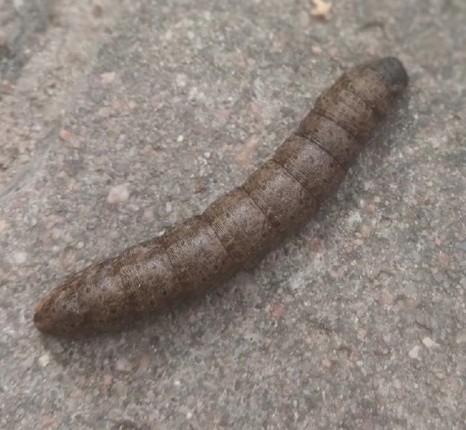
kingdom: Animalia
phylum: Arthropoda
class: Insecta
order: Lepidoptera
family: Noctuidae
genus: Cucullia
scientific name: Cucullia umbratica
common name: Shark
